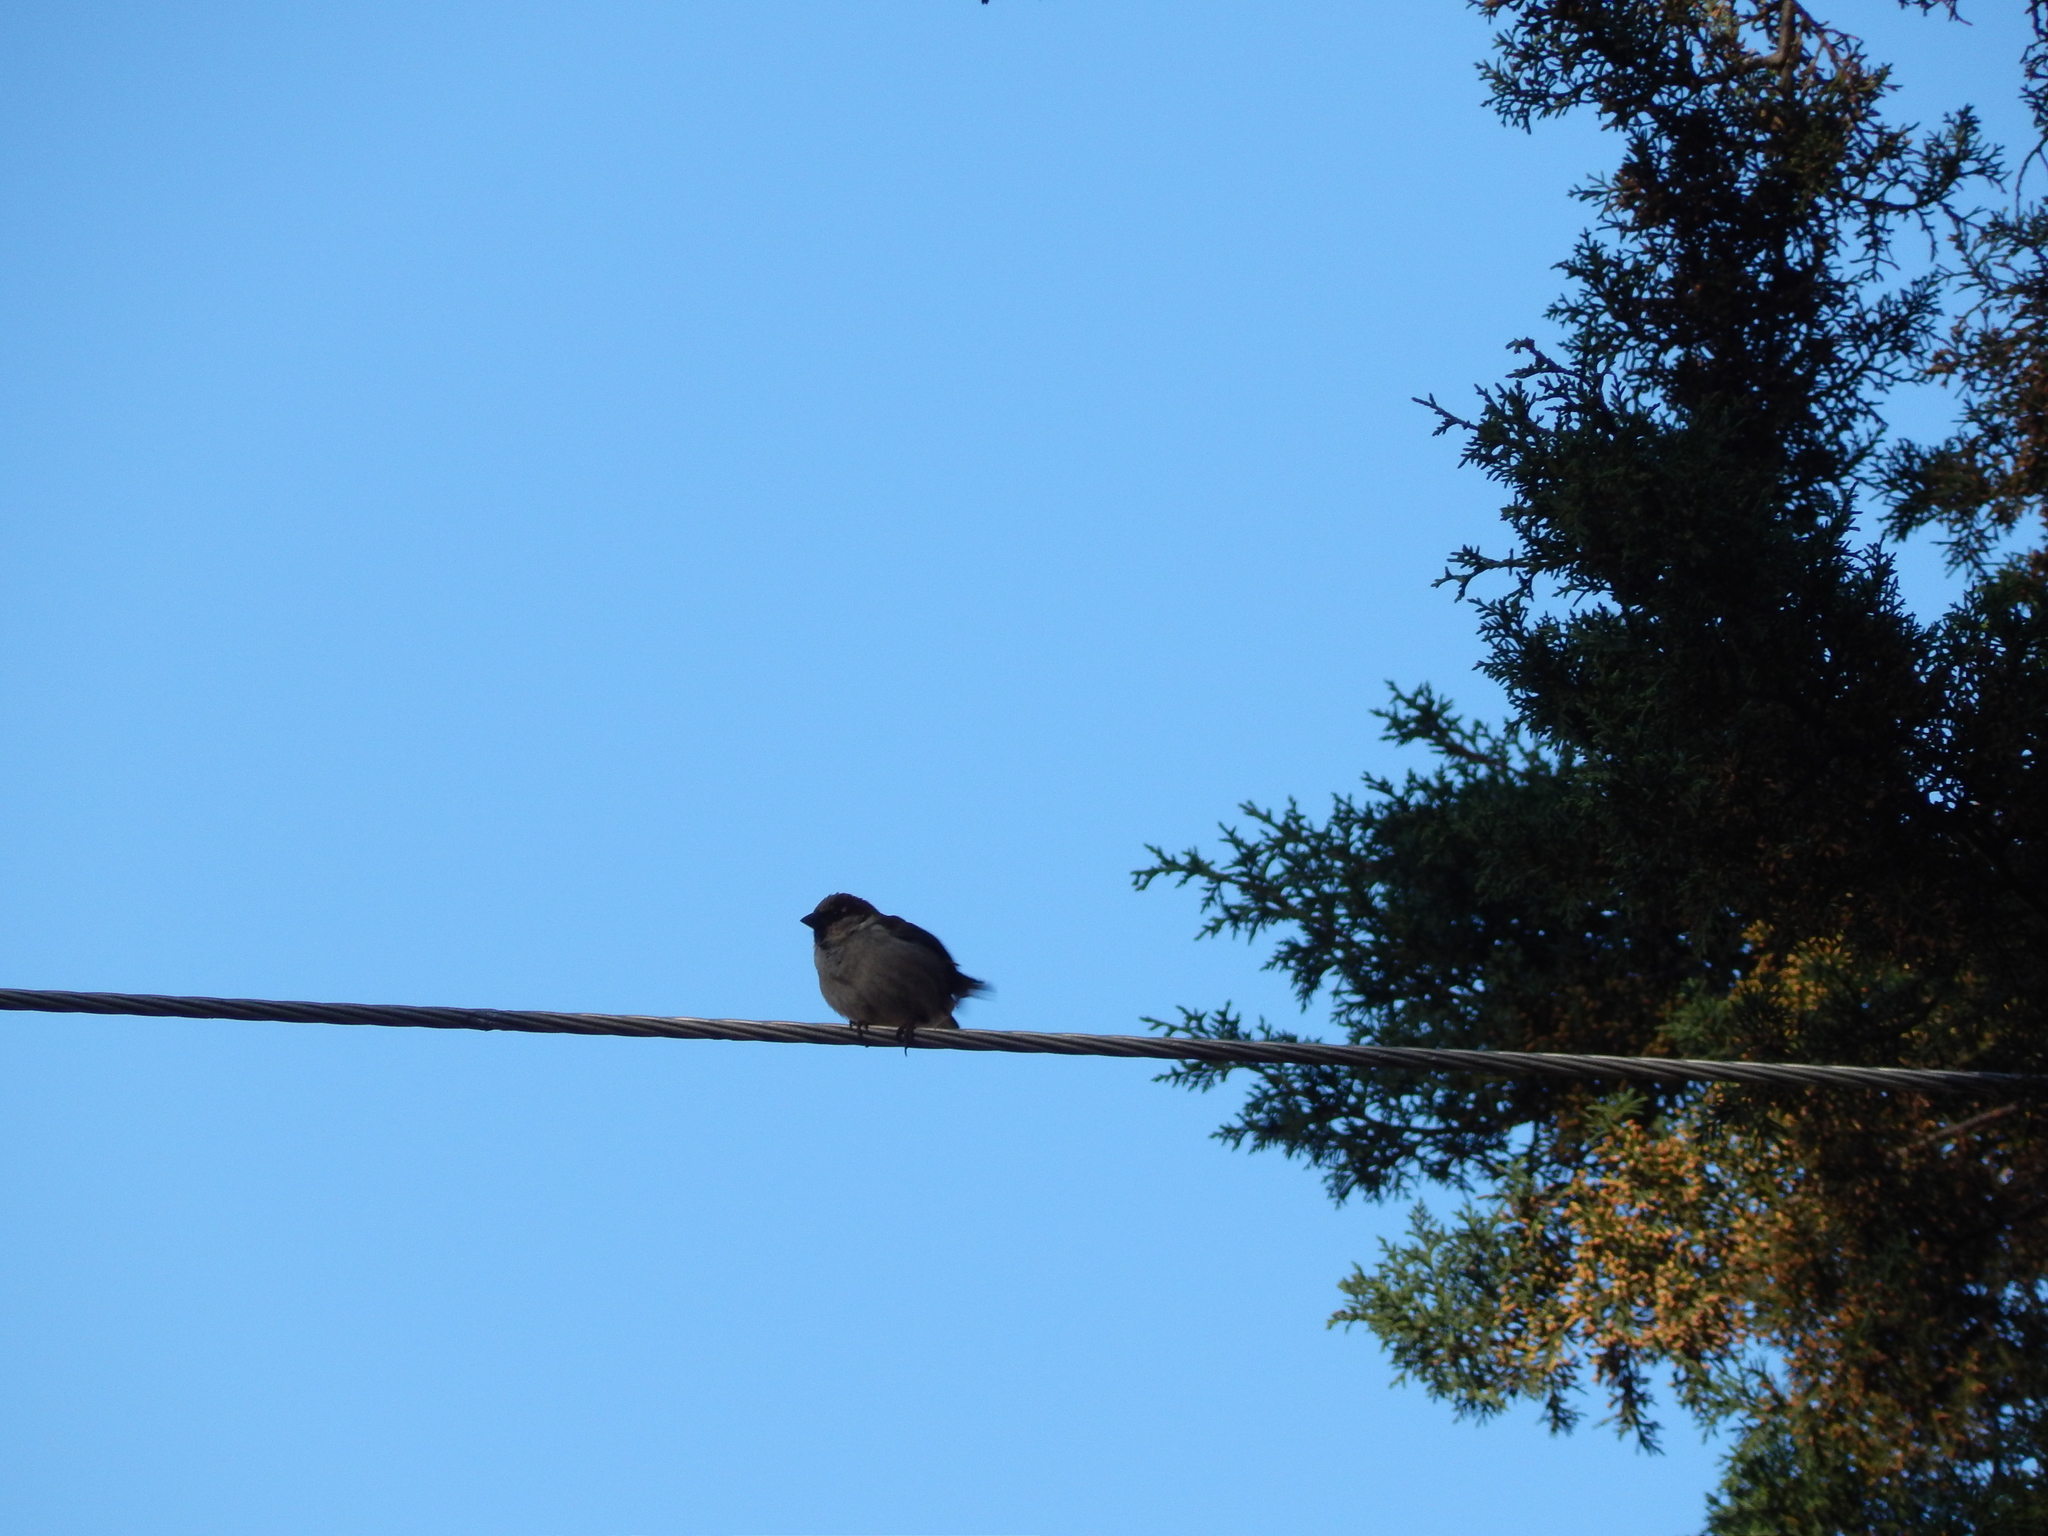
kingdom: Animalia
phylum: Chordata
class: Aves
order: Passeriformes
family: Passeridae
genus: Passer
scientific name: Passer domesticus
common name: House sparrow
